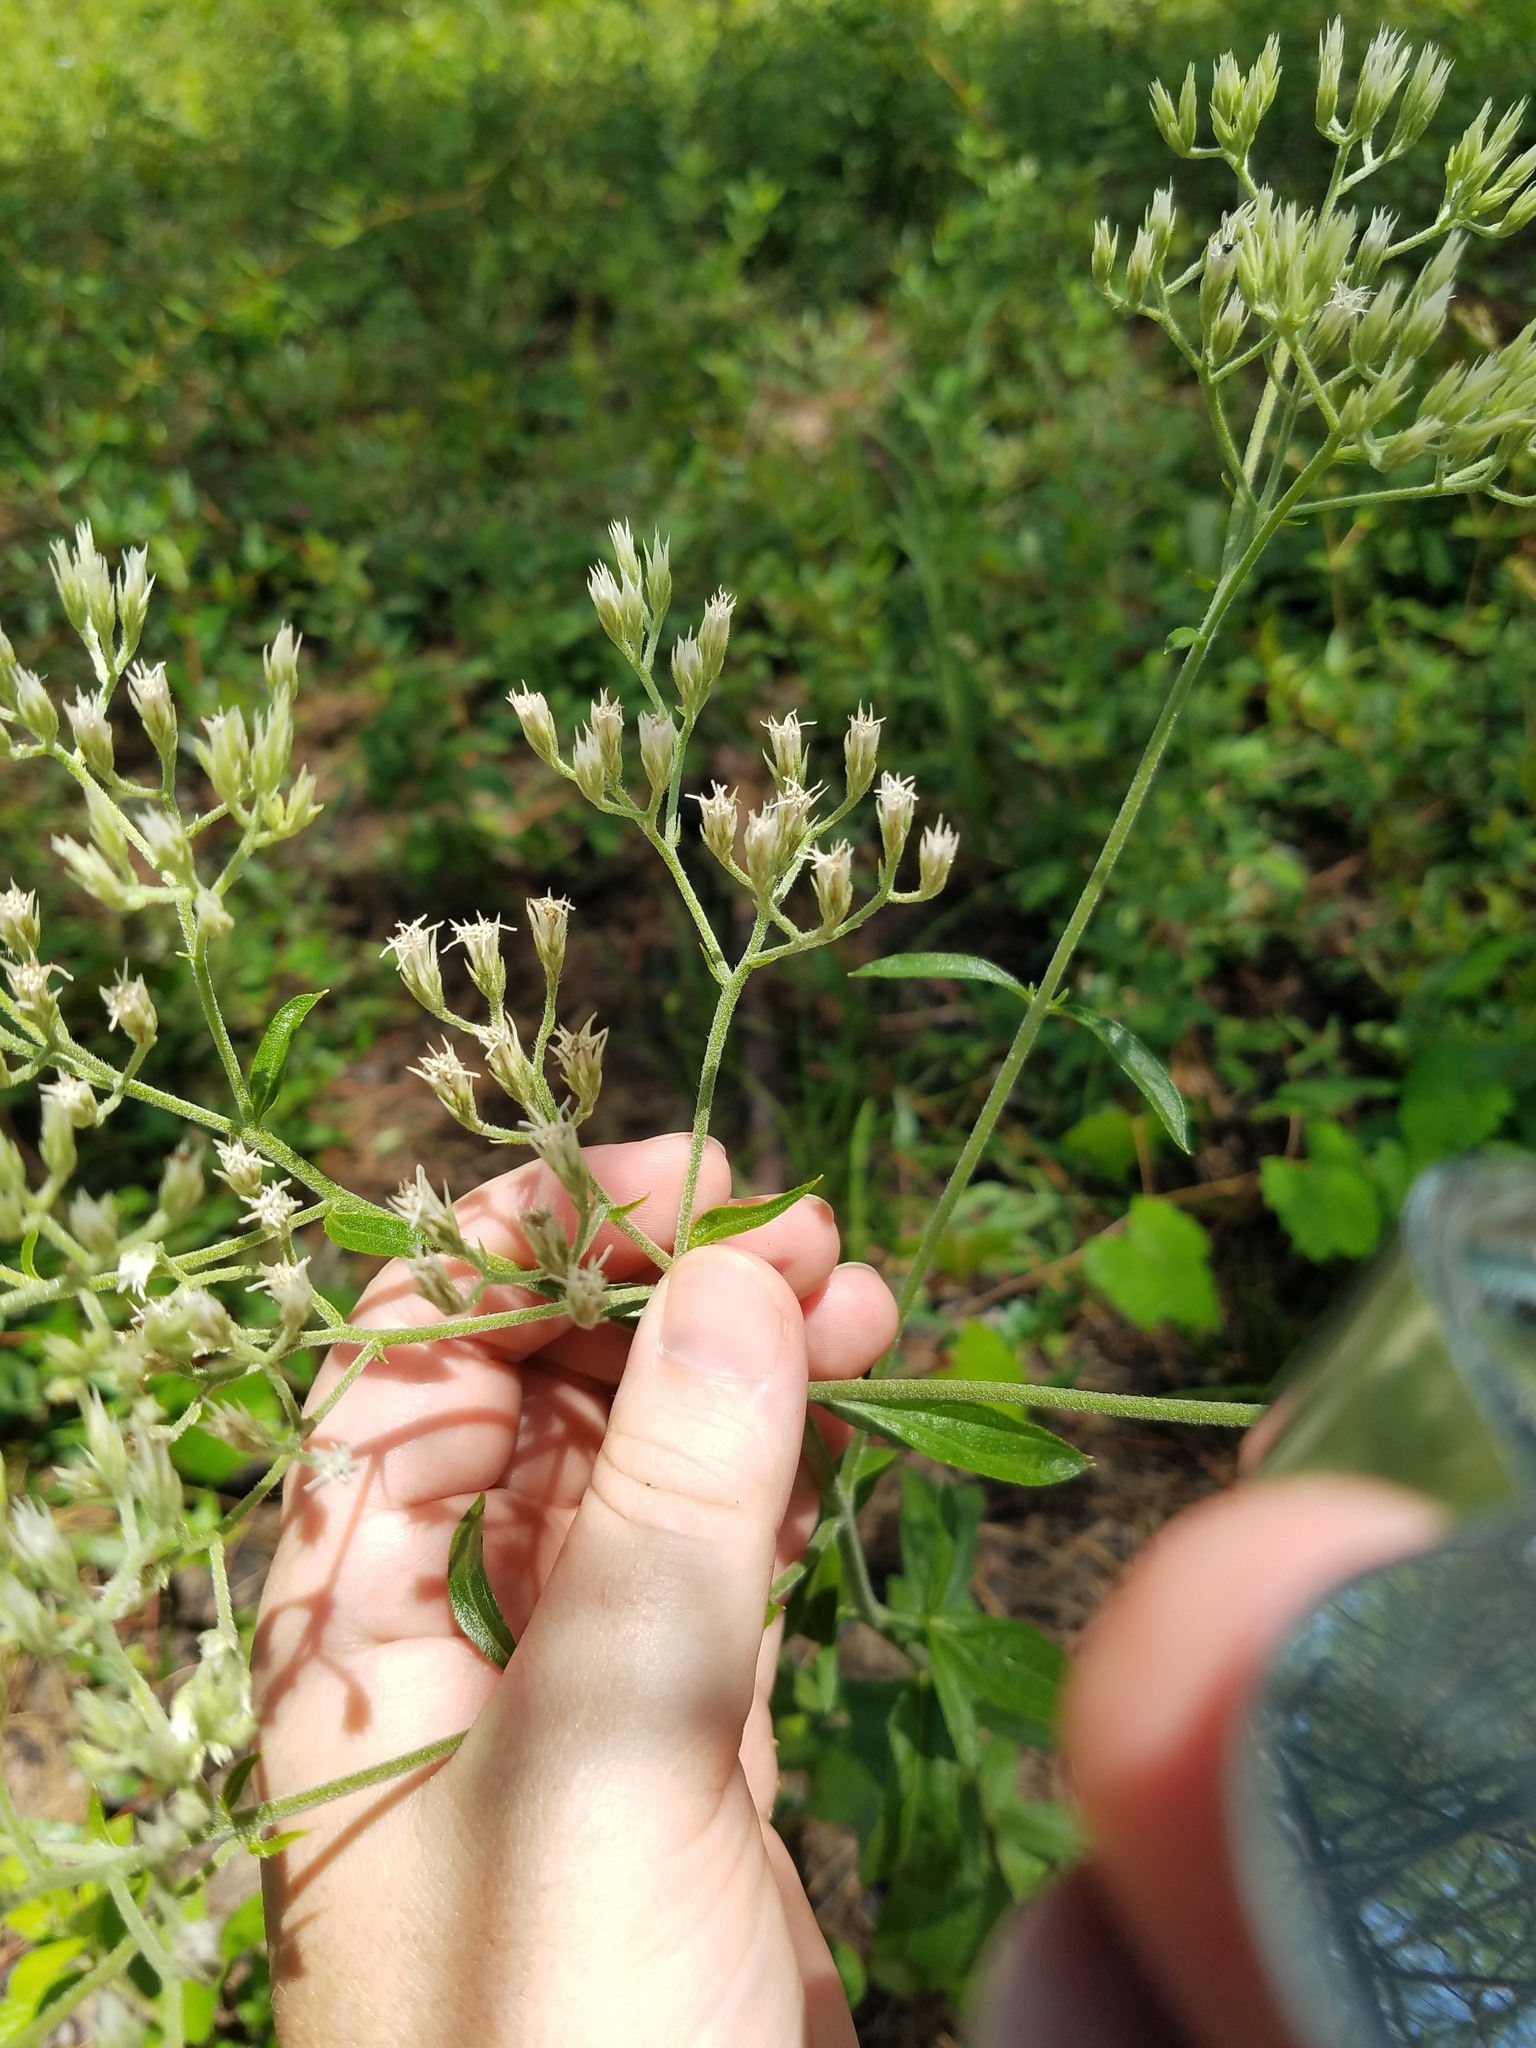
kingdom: Plantae
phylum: Tracheophyta
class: Magnoliopsida
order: Asterales
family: Asteraceae
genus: Eupatorium
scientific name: Eupatorium album
